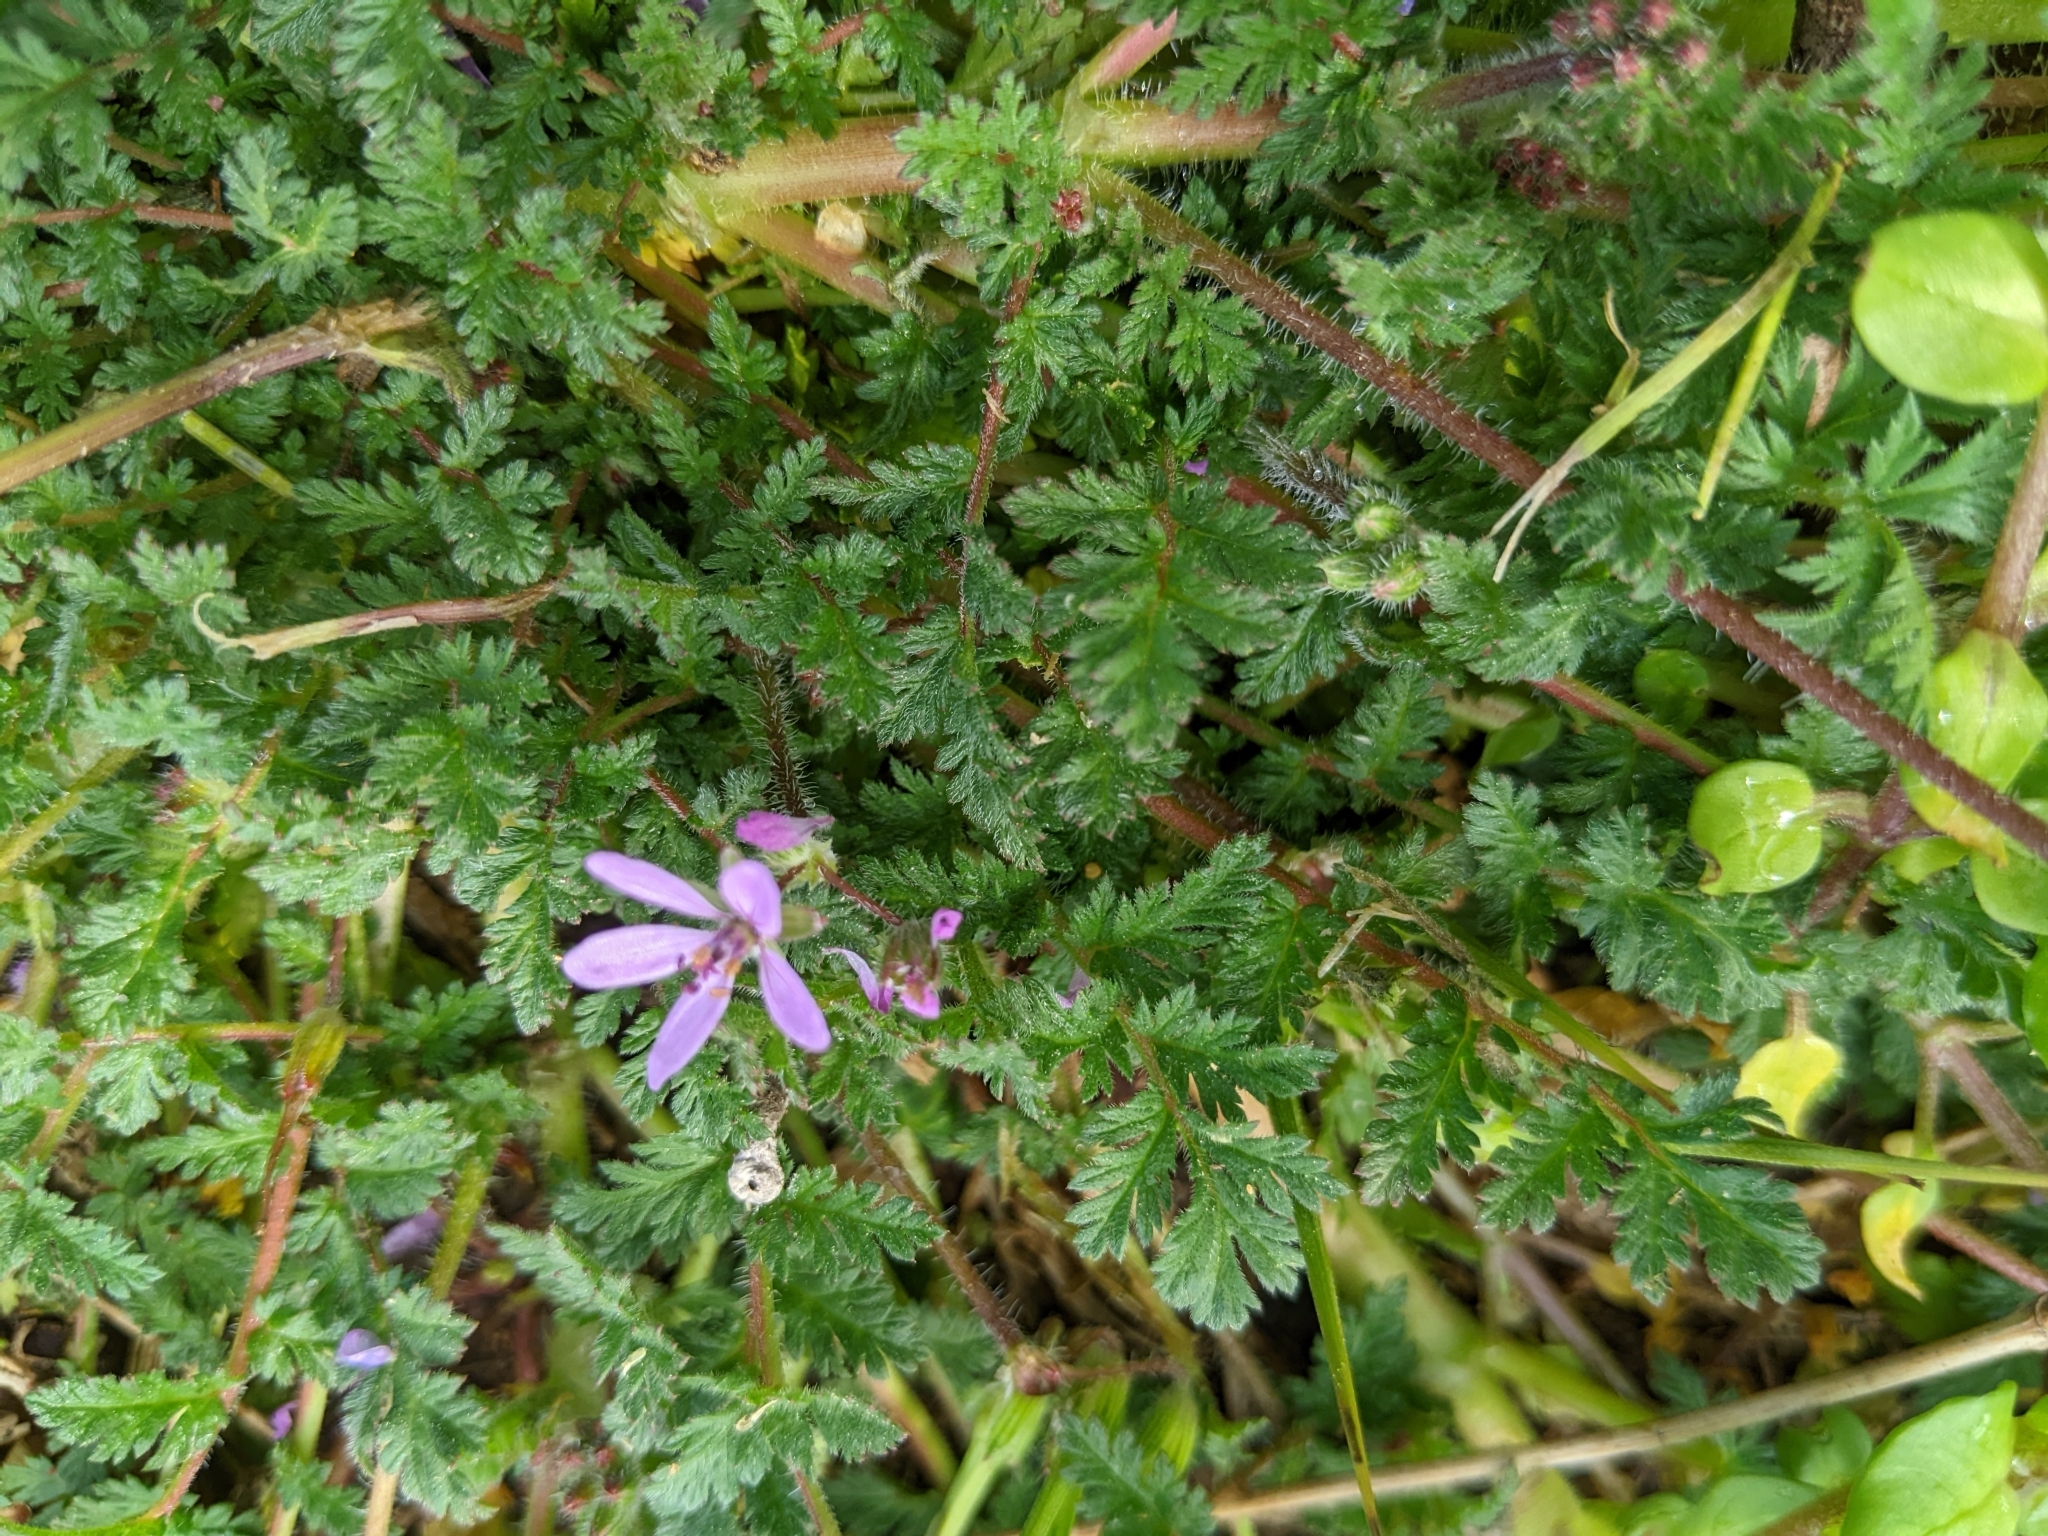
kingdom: Plantae
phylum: Tracheophyta
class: Magnoliopsida
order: Geraniales
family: Geraniaceae
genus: Erodium
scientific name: Erodium cicutarium
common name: Common stork's-bill
